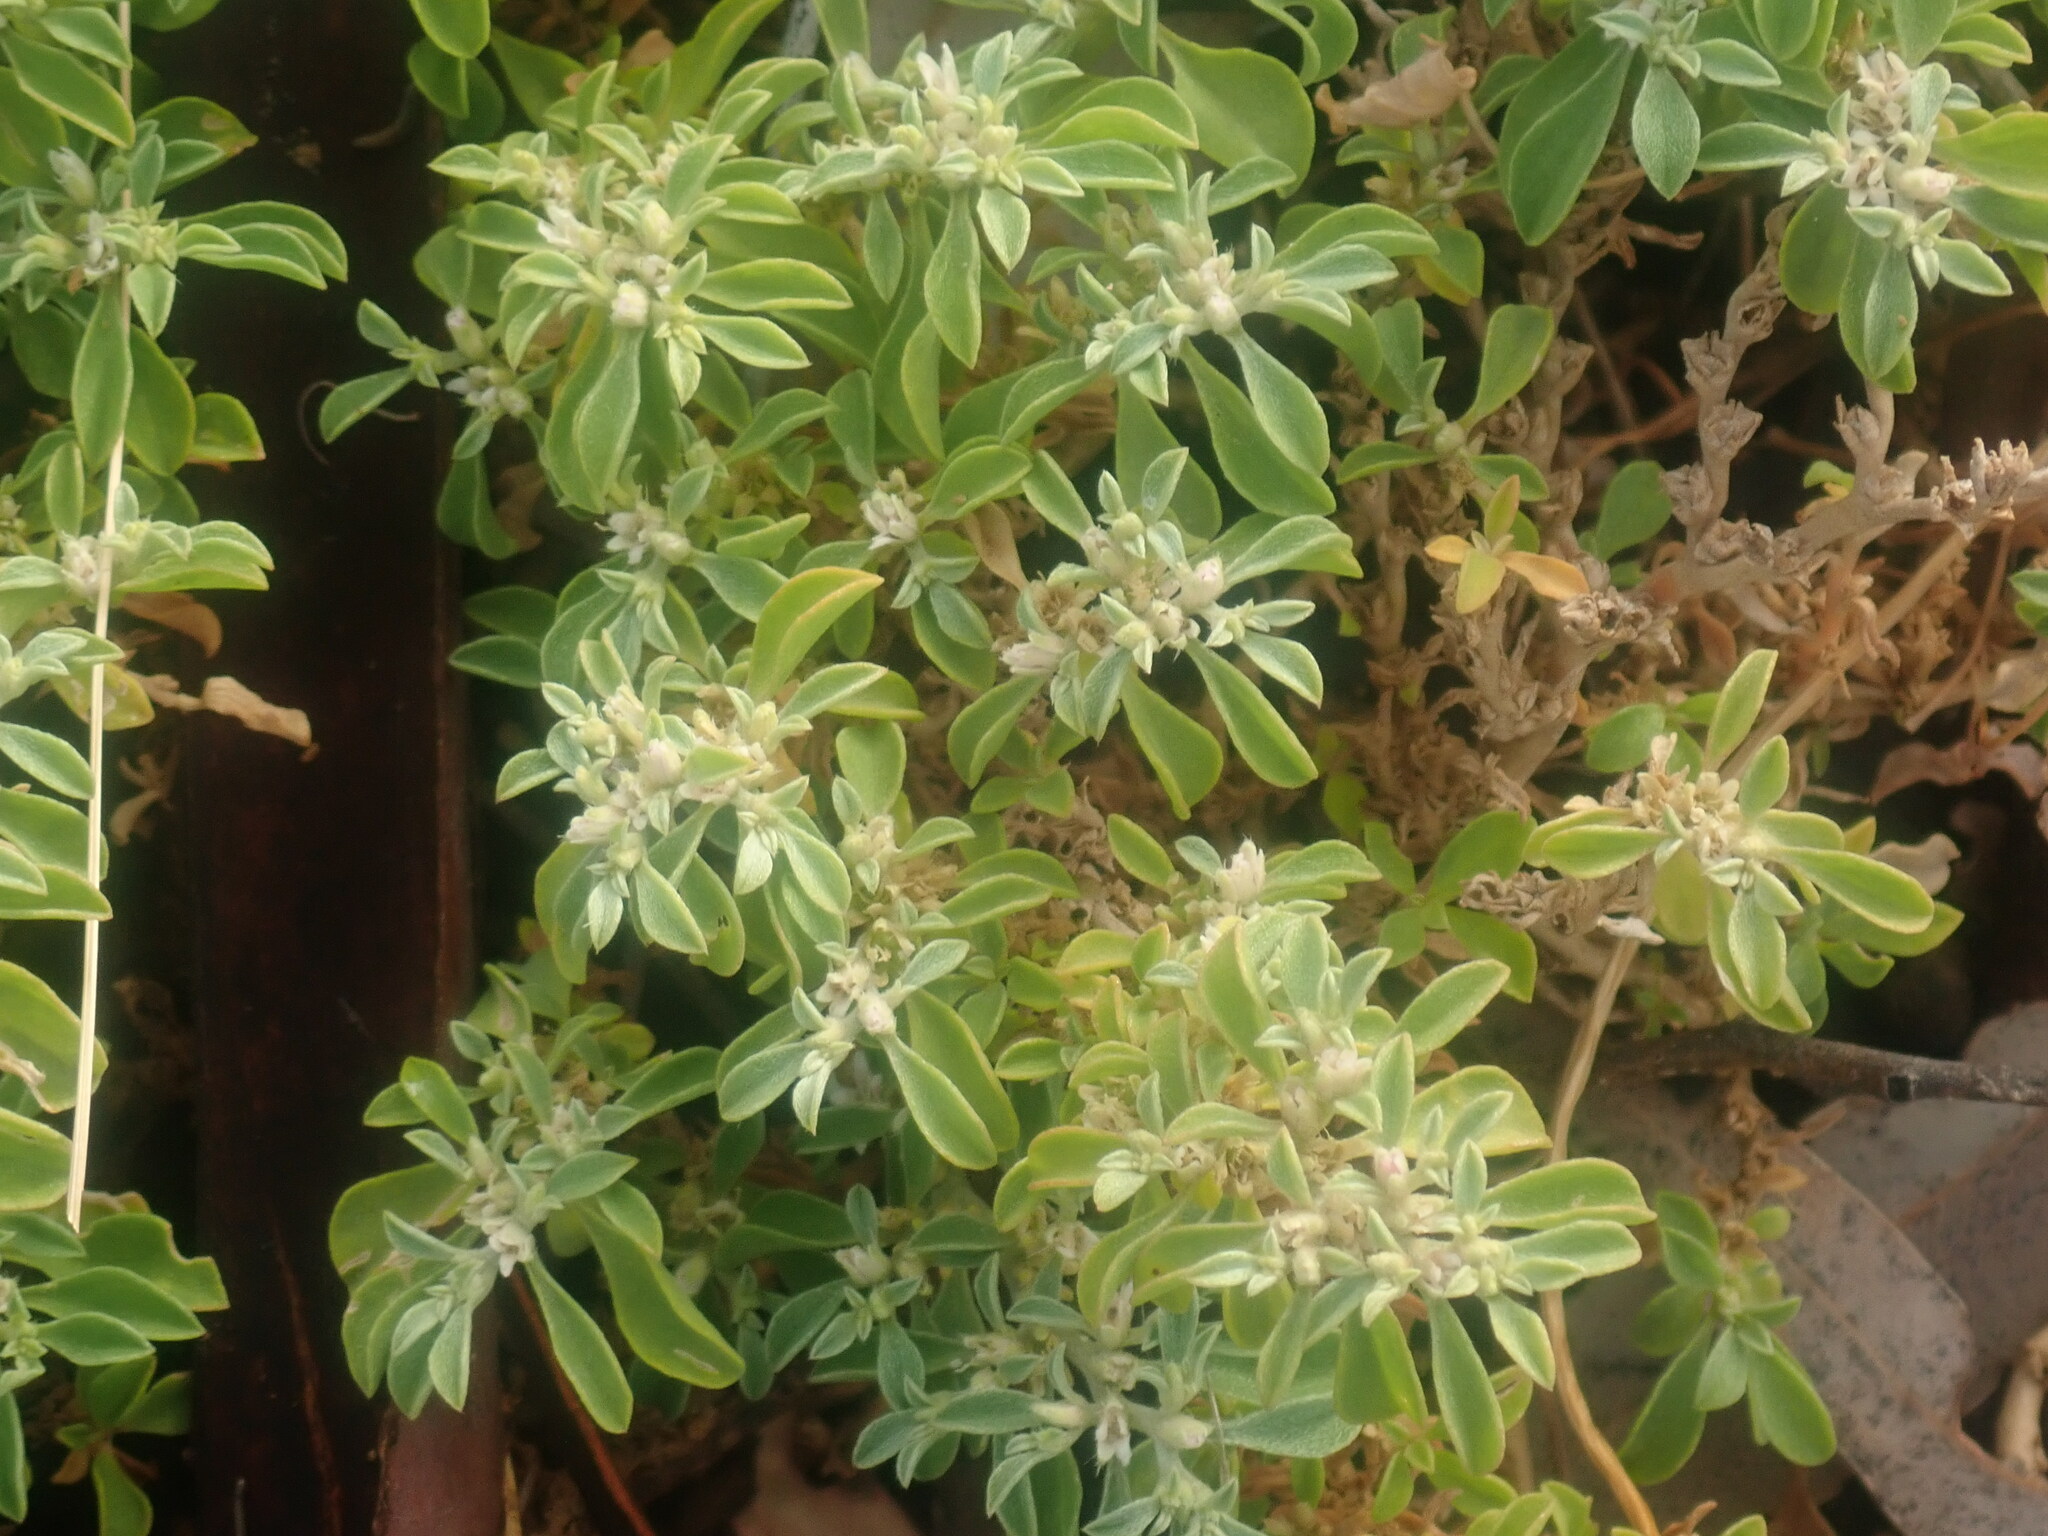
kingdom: Plantae
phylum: Tracheophyta
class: Magnoliopsida
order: Caryophyllales
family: Aizoaceae
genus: Aizoon
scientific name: Aizoon pubescens
